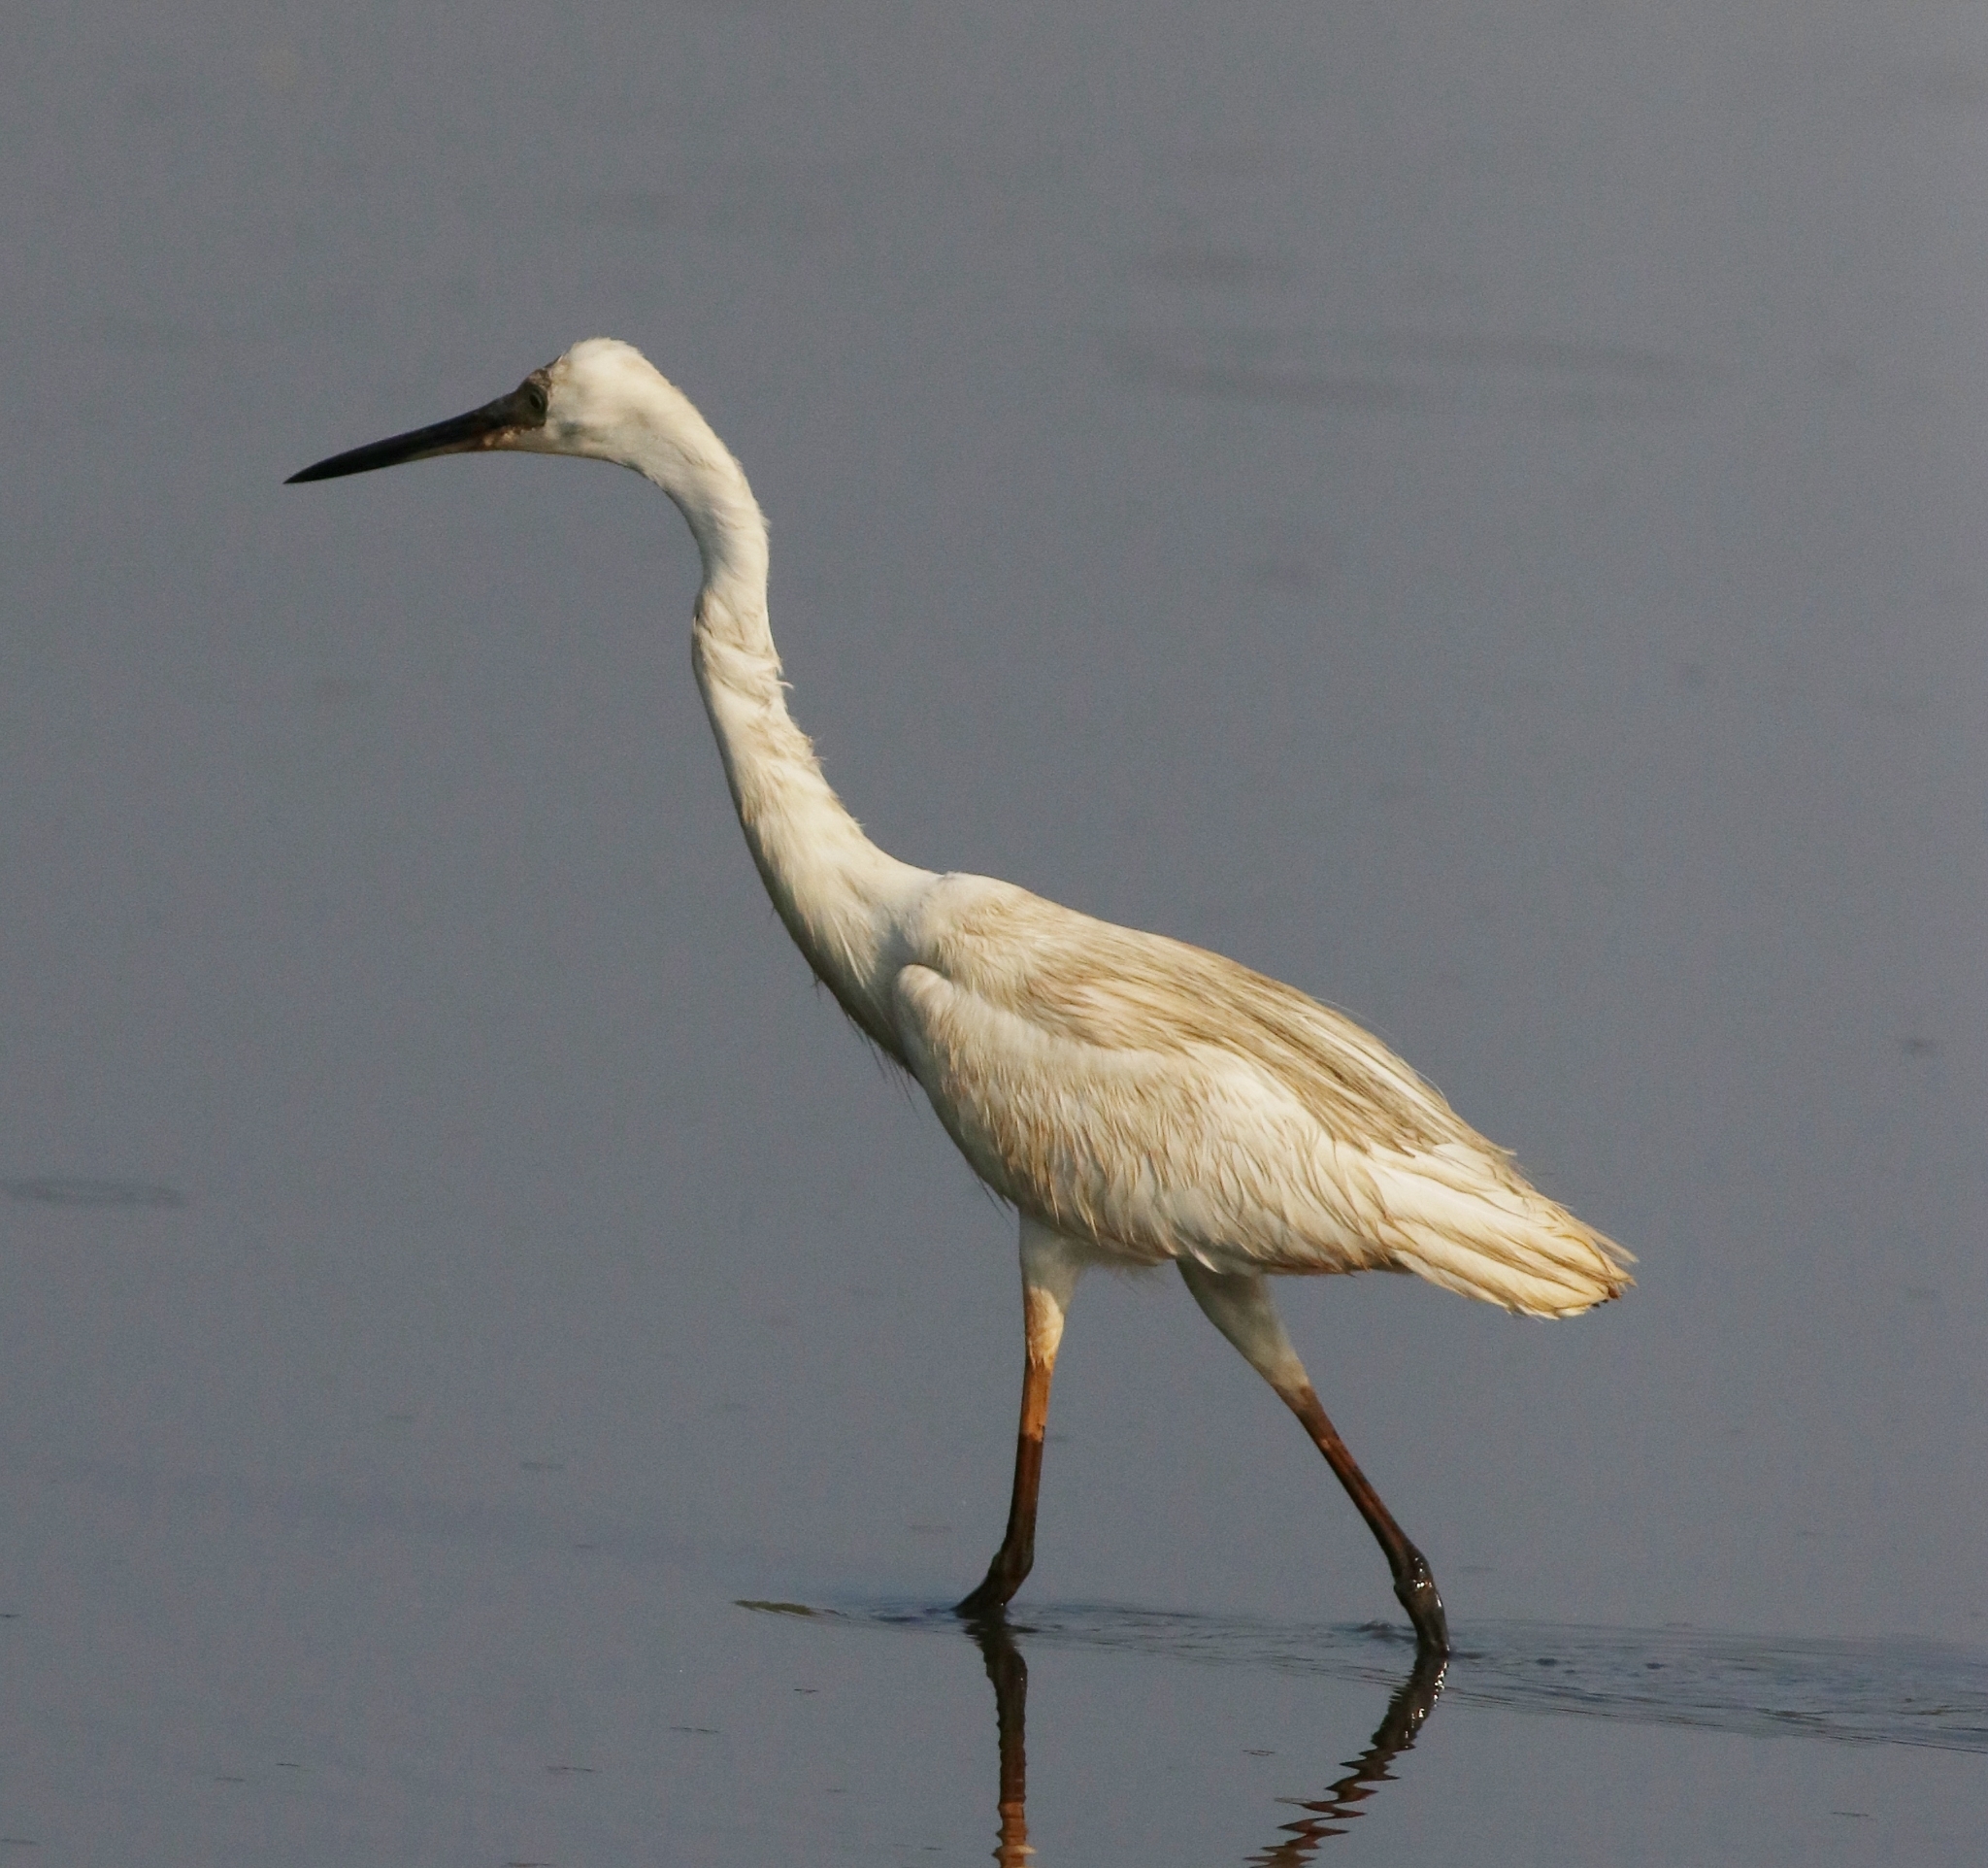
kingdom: Animalia
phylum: Chordata
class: Aves
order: Pelecaniformes
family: Ardeidae
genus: Egretta
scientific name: Egretta garzetta
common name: Little egret
